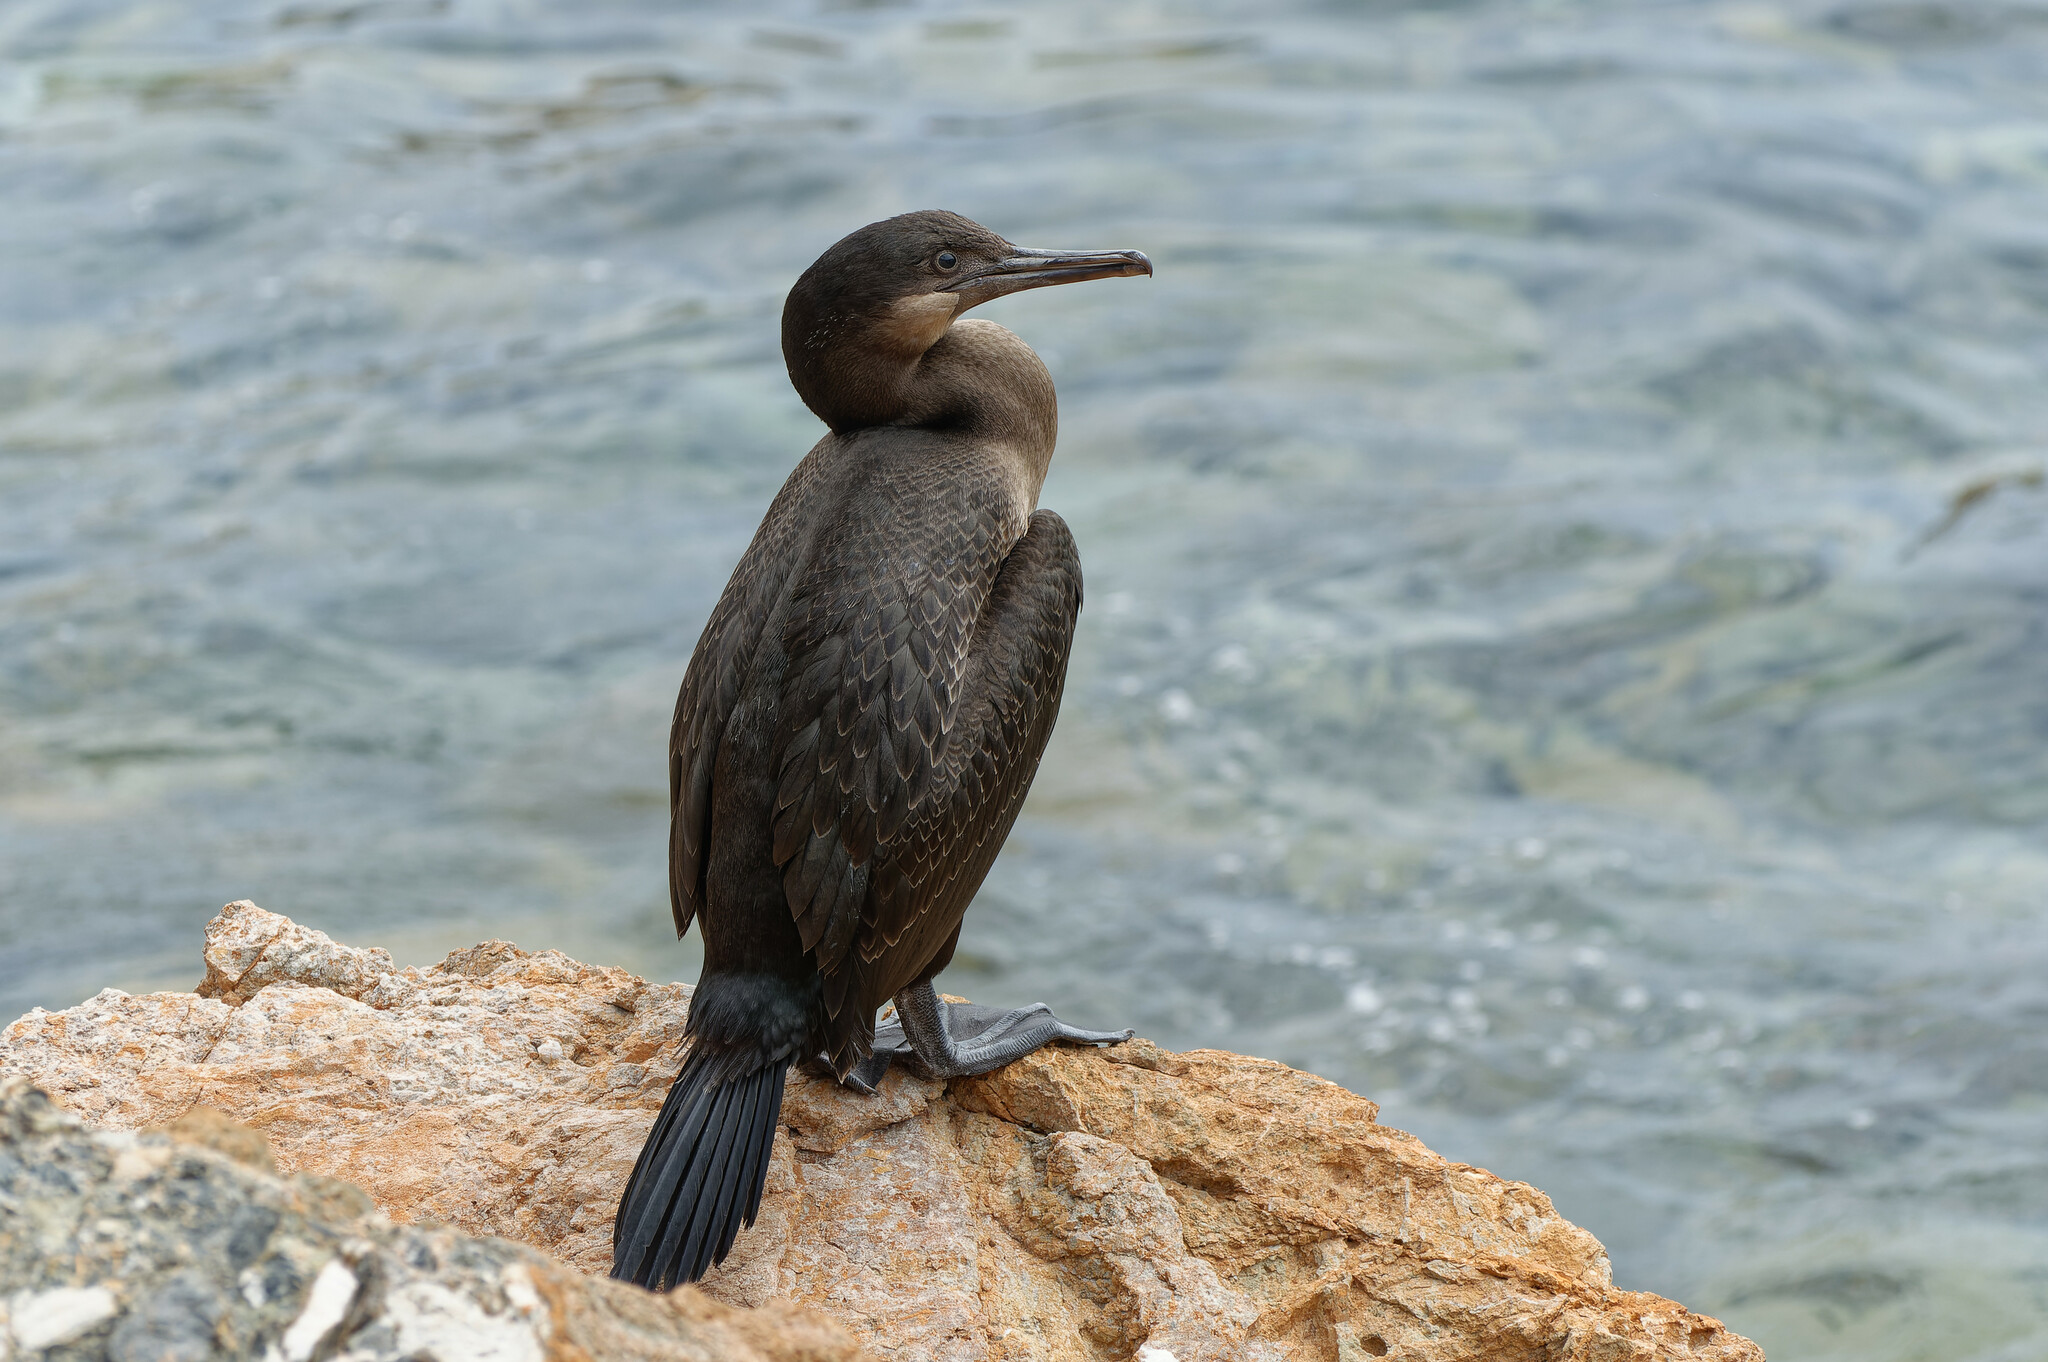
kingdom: Animalia
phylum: Chordata
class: Aves
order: Suliformes
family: Phalacrocoracidae
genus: Urile
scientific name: Urile penicillatus
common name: Brandt's cormorant
